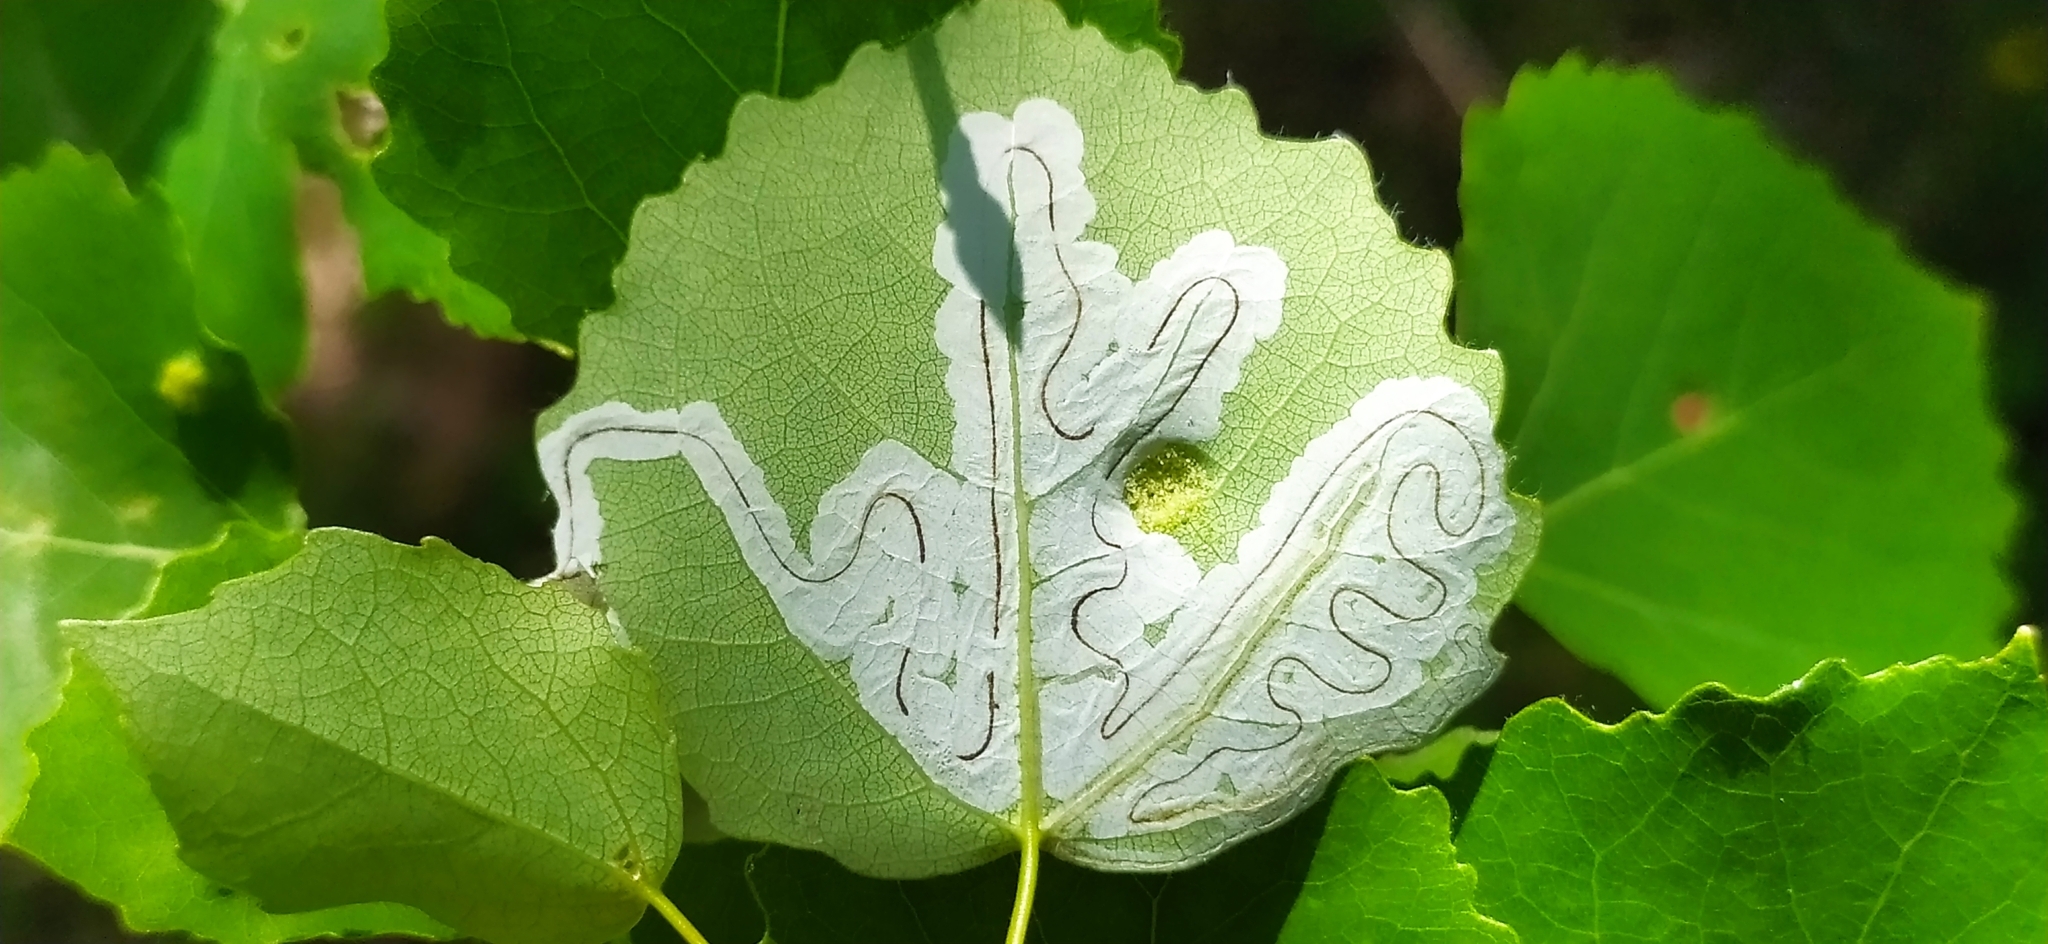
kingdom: Animalia
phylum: Arthropoda
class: Insecta
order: Lepidoptera
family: Gracillariidae
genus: Phyllocnistis
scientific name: Phyllocnistis labyrinthella
